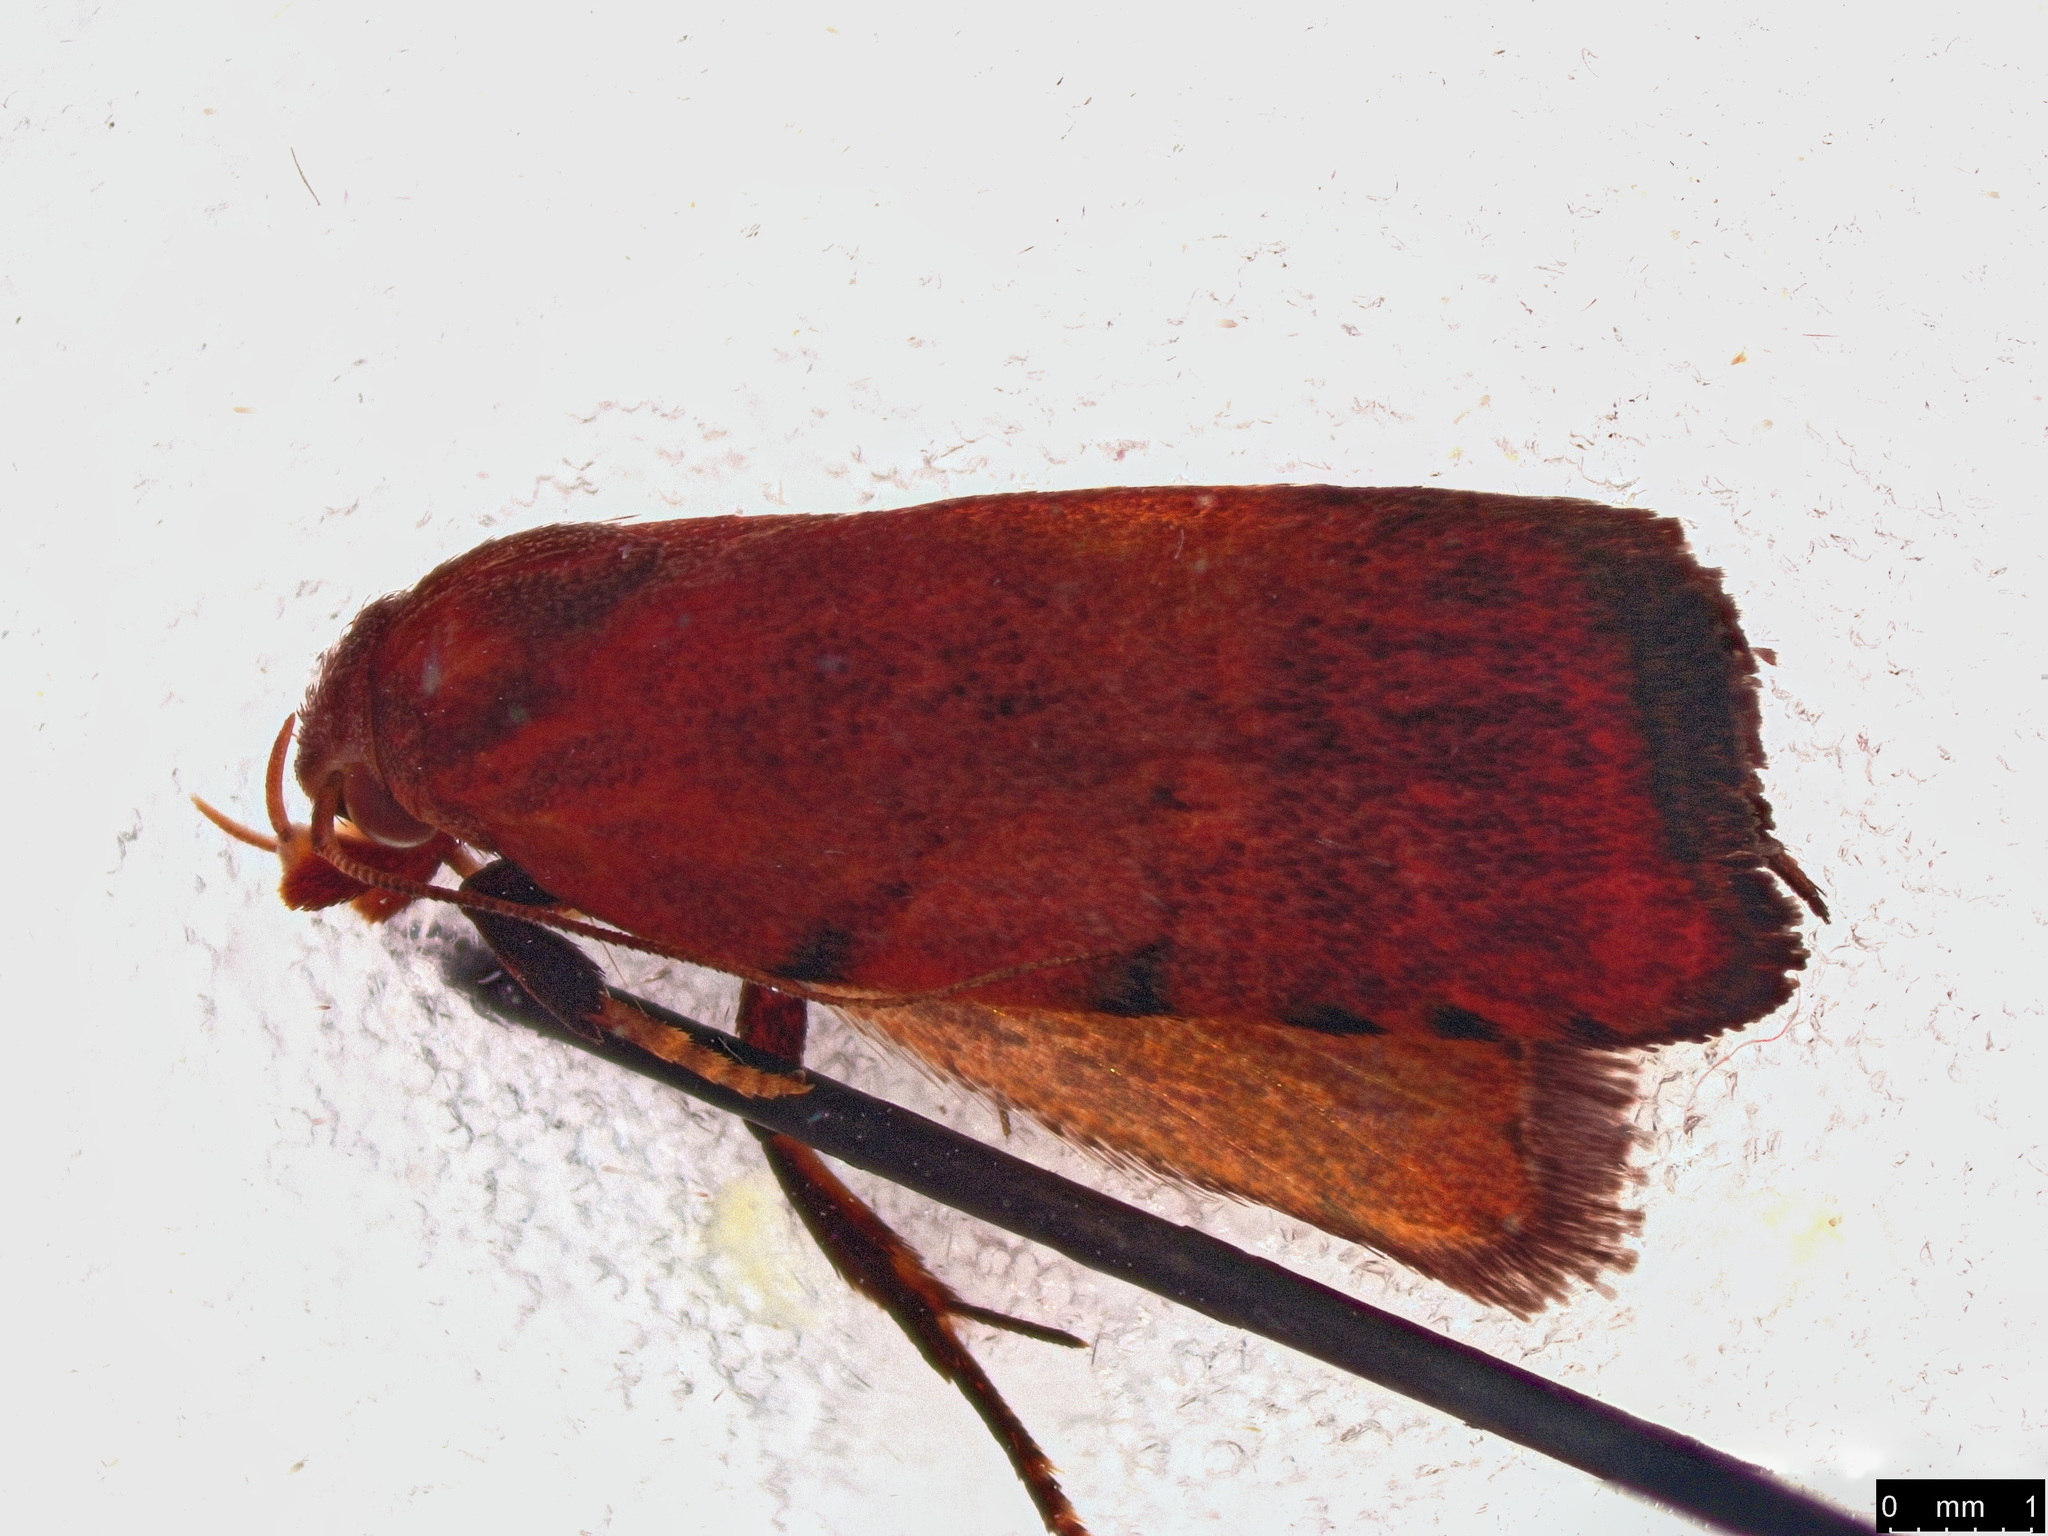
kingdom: Animalia
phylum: Arthropoda
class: Insecta
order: Lepidoptera
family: Oecophoridae
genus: Tortricopsis
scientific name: Tortricopsis semijunctella
